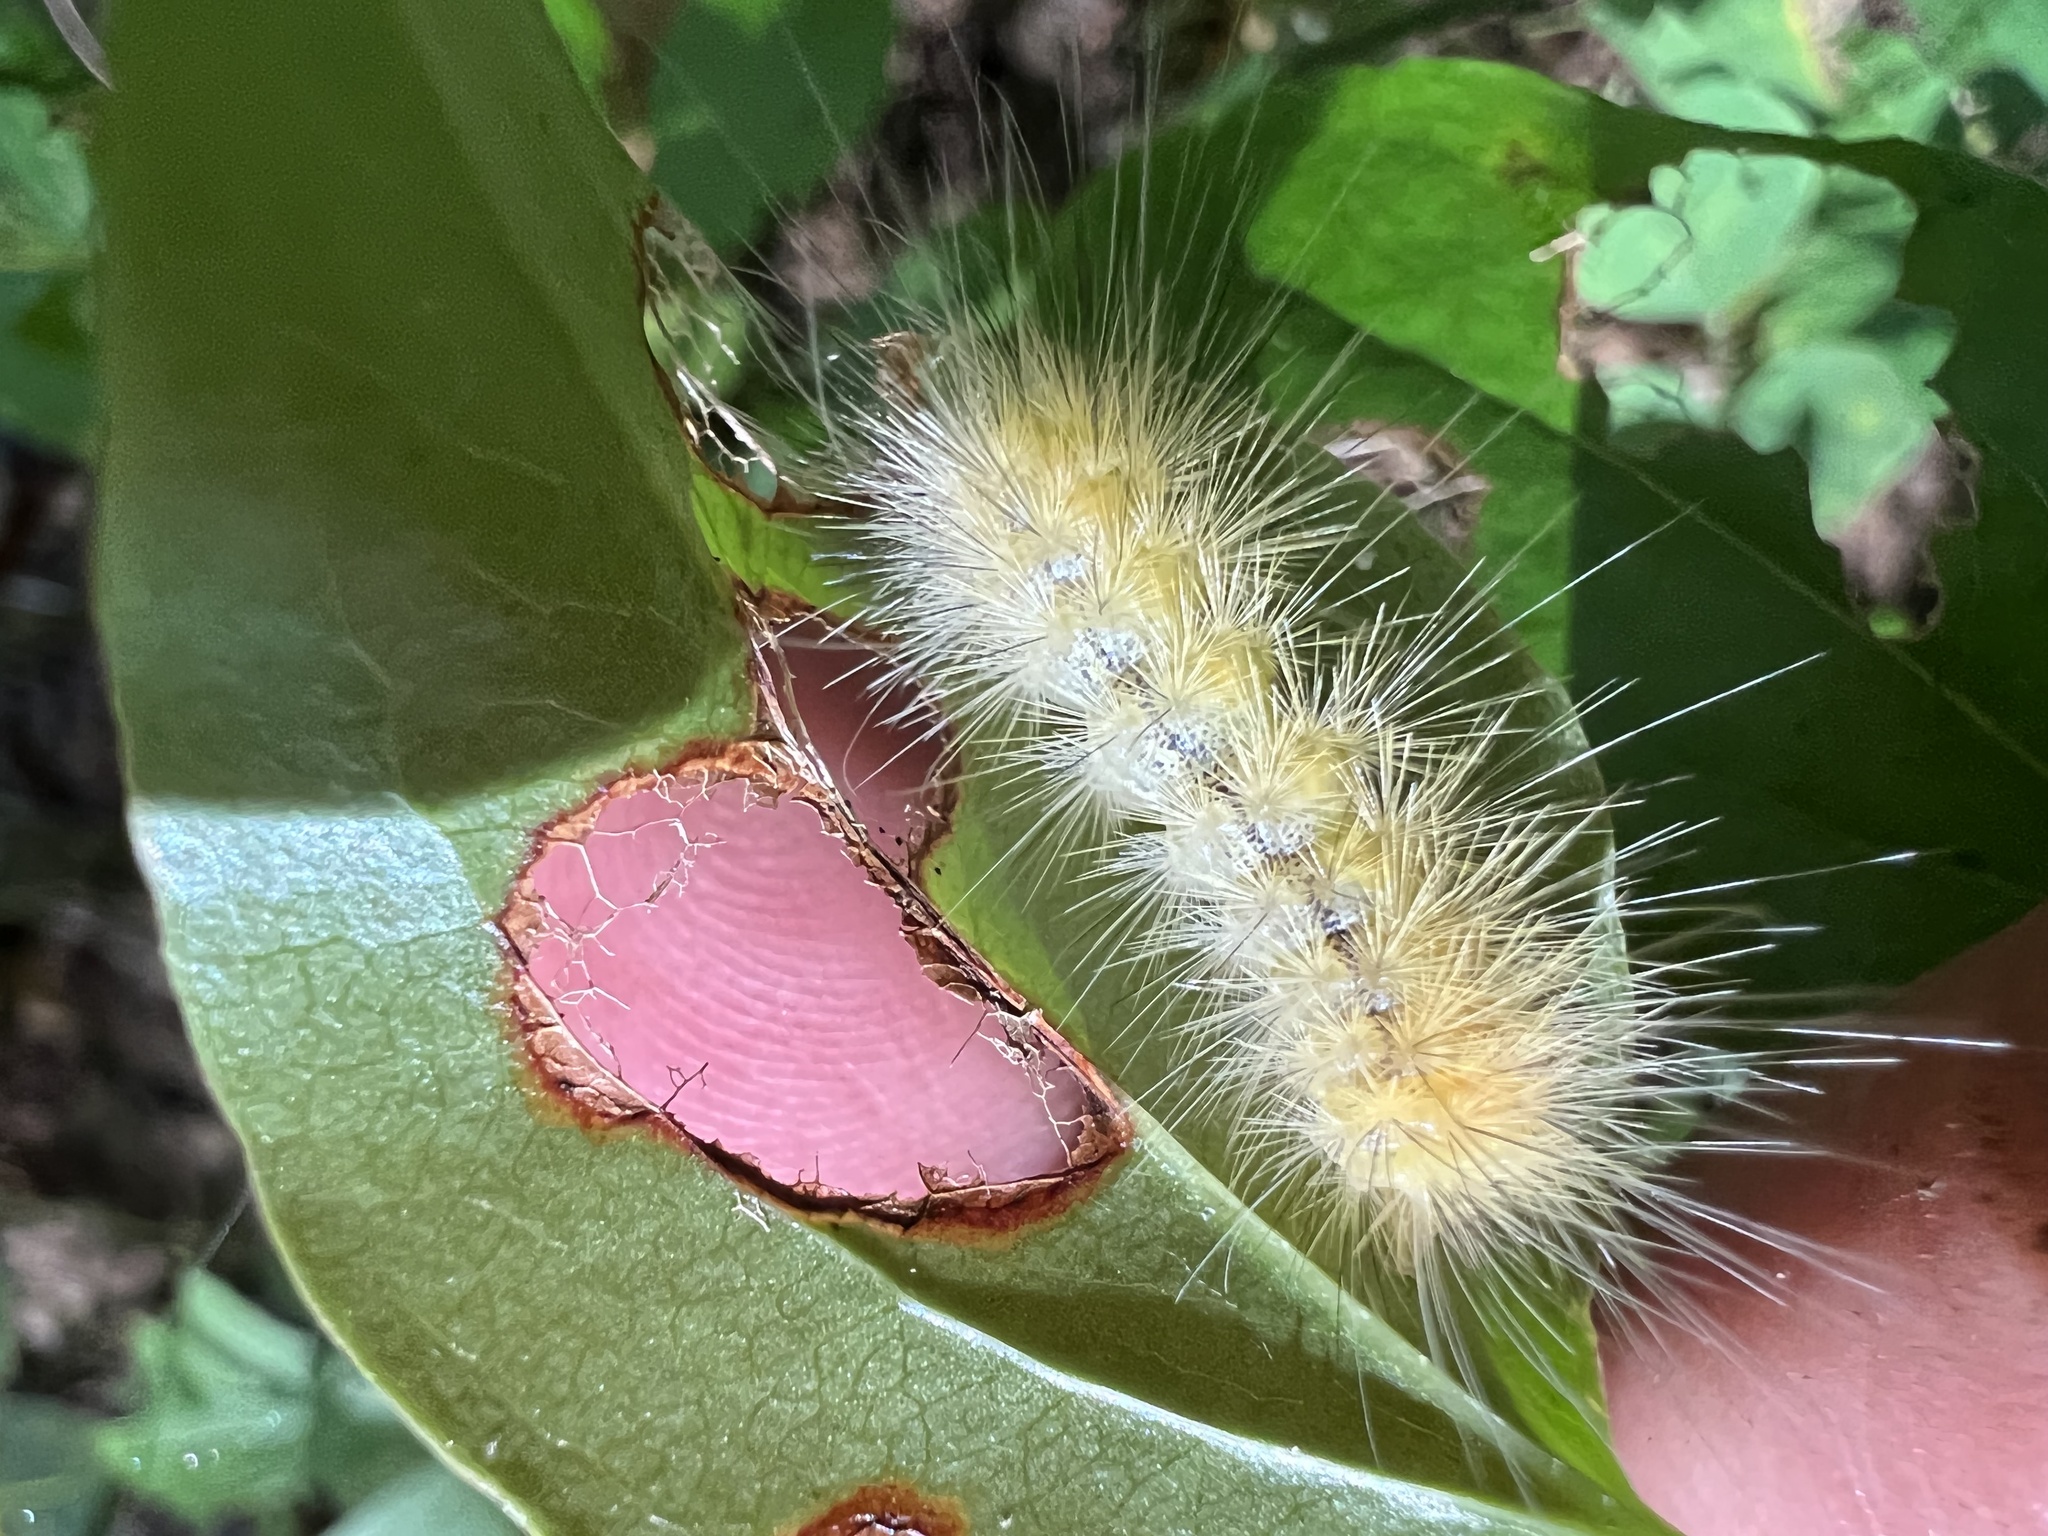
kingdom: Animalia
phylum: Arthropoda
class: Insecta
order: Lepidoptera
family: Erebidae
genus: Spilosoma
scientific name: Spilosoma virginica
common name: Virginia tiger moth
